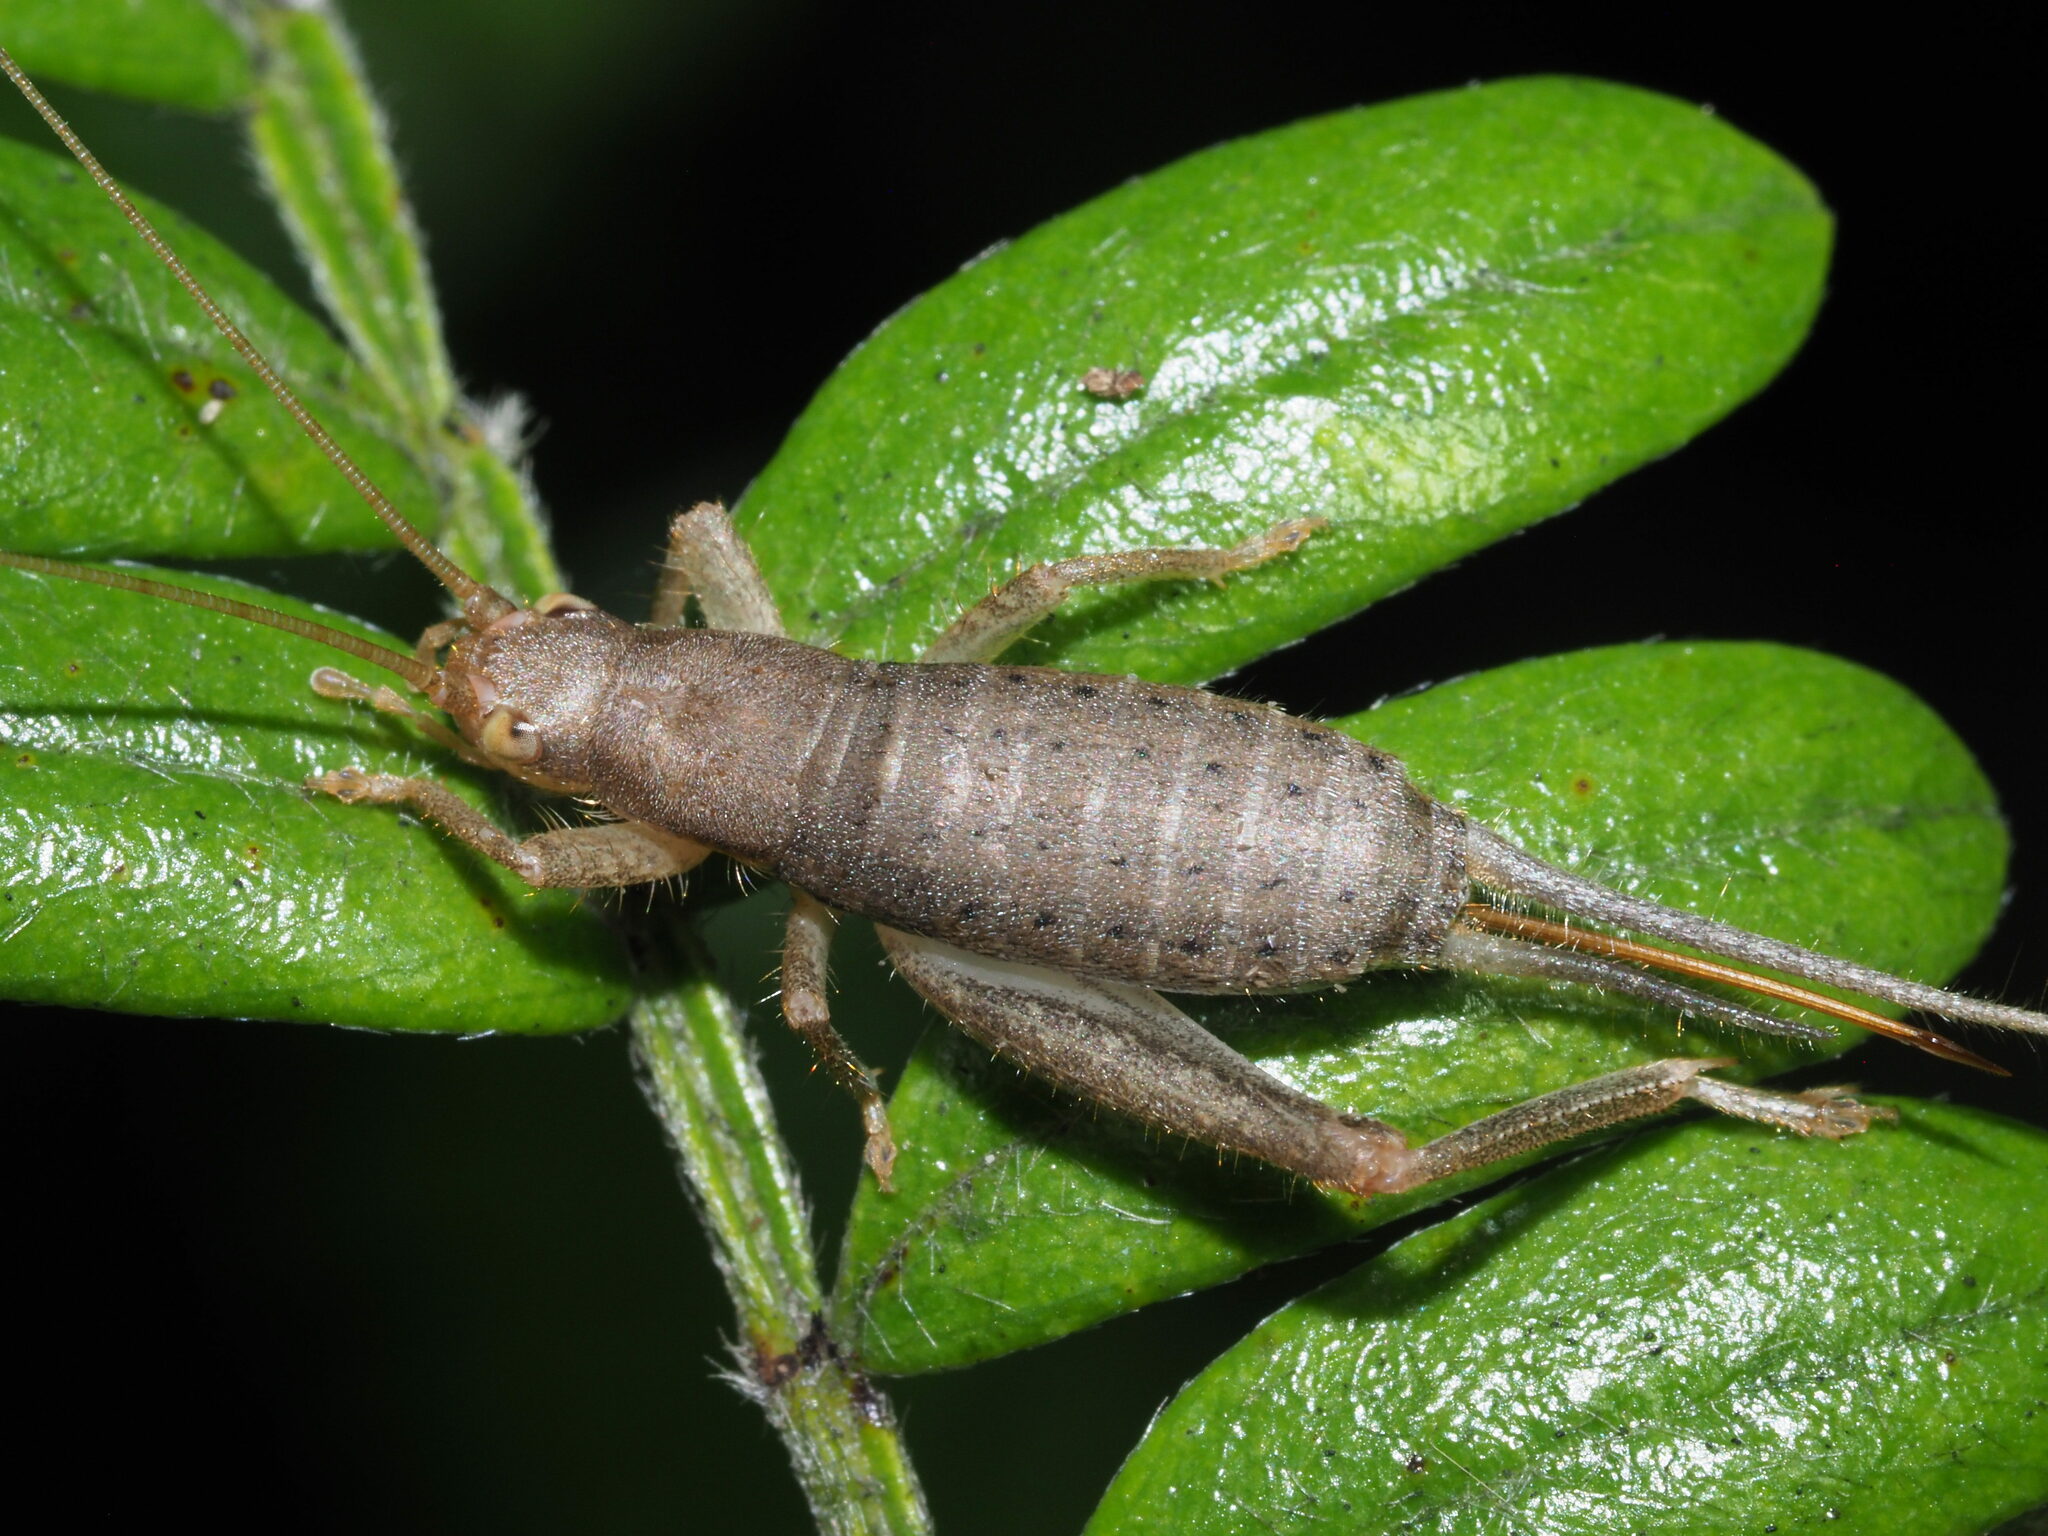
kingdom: Animalia
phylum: Arthropoda
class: Insecta
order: Orthoptera
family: Mogoplistidae
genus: Ornebius
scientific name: Ornebius bimaculatus
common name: Cricket
